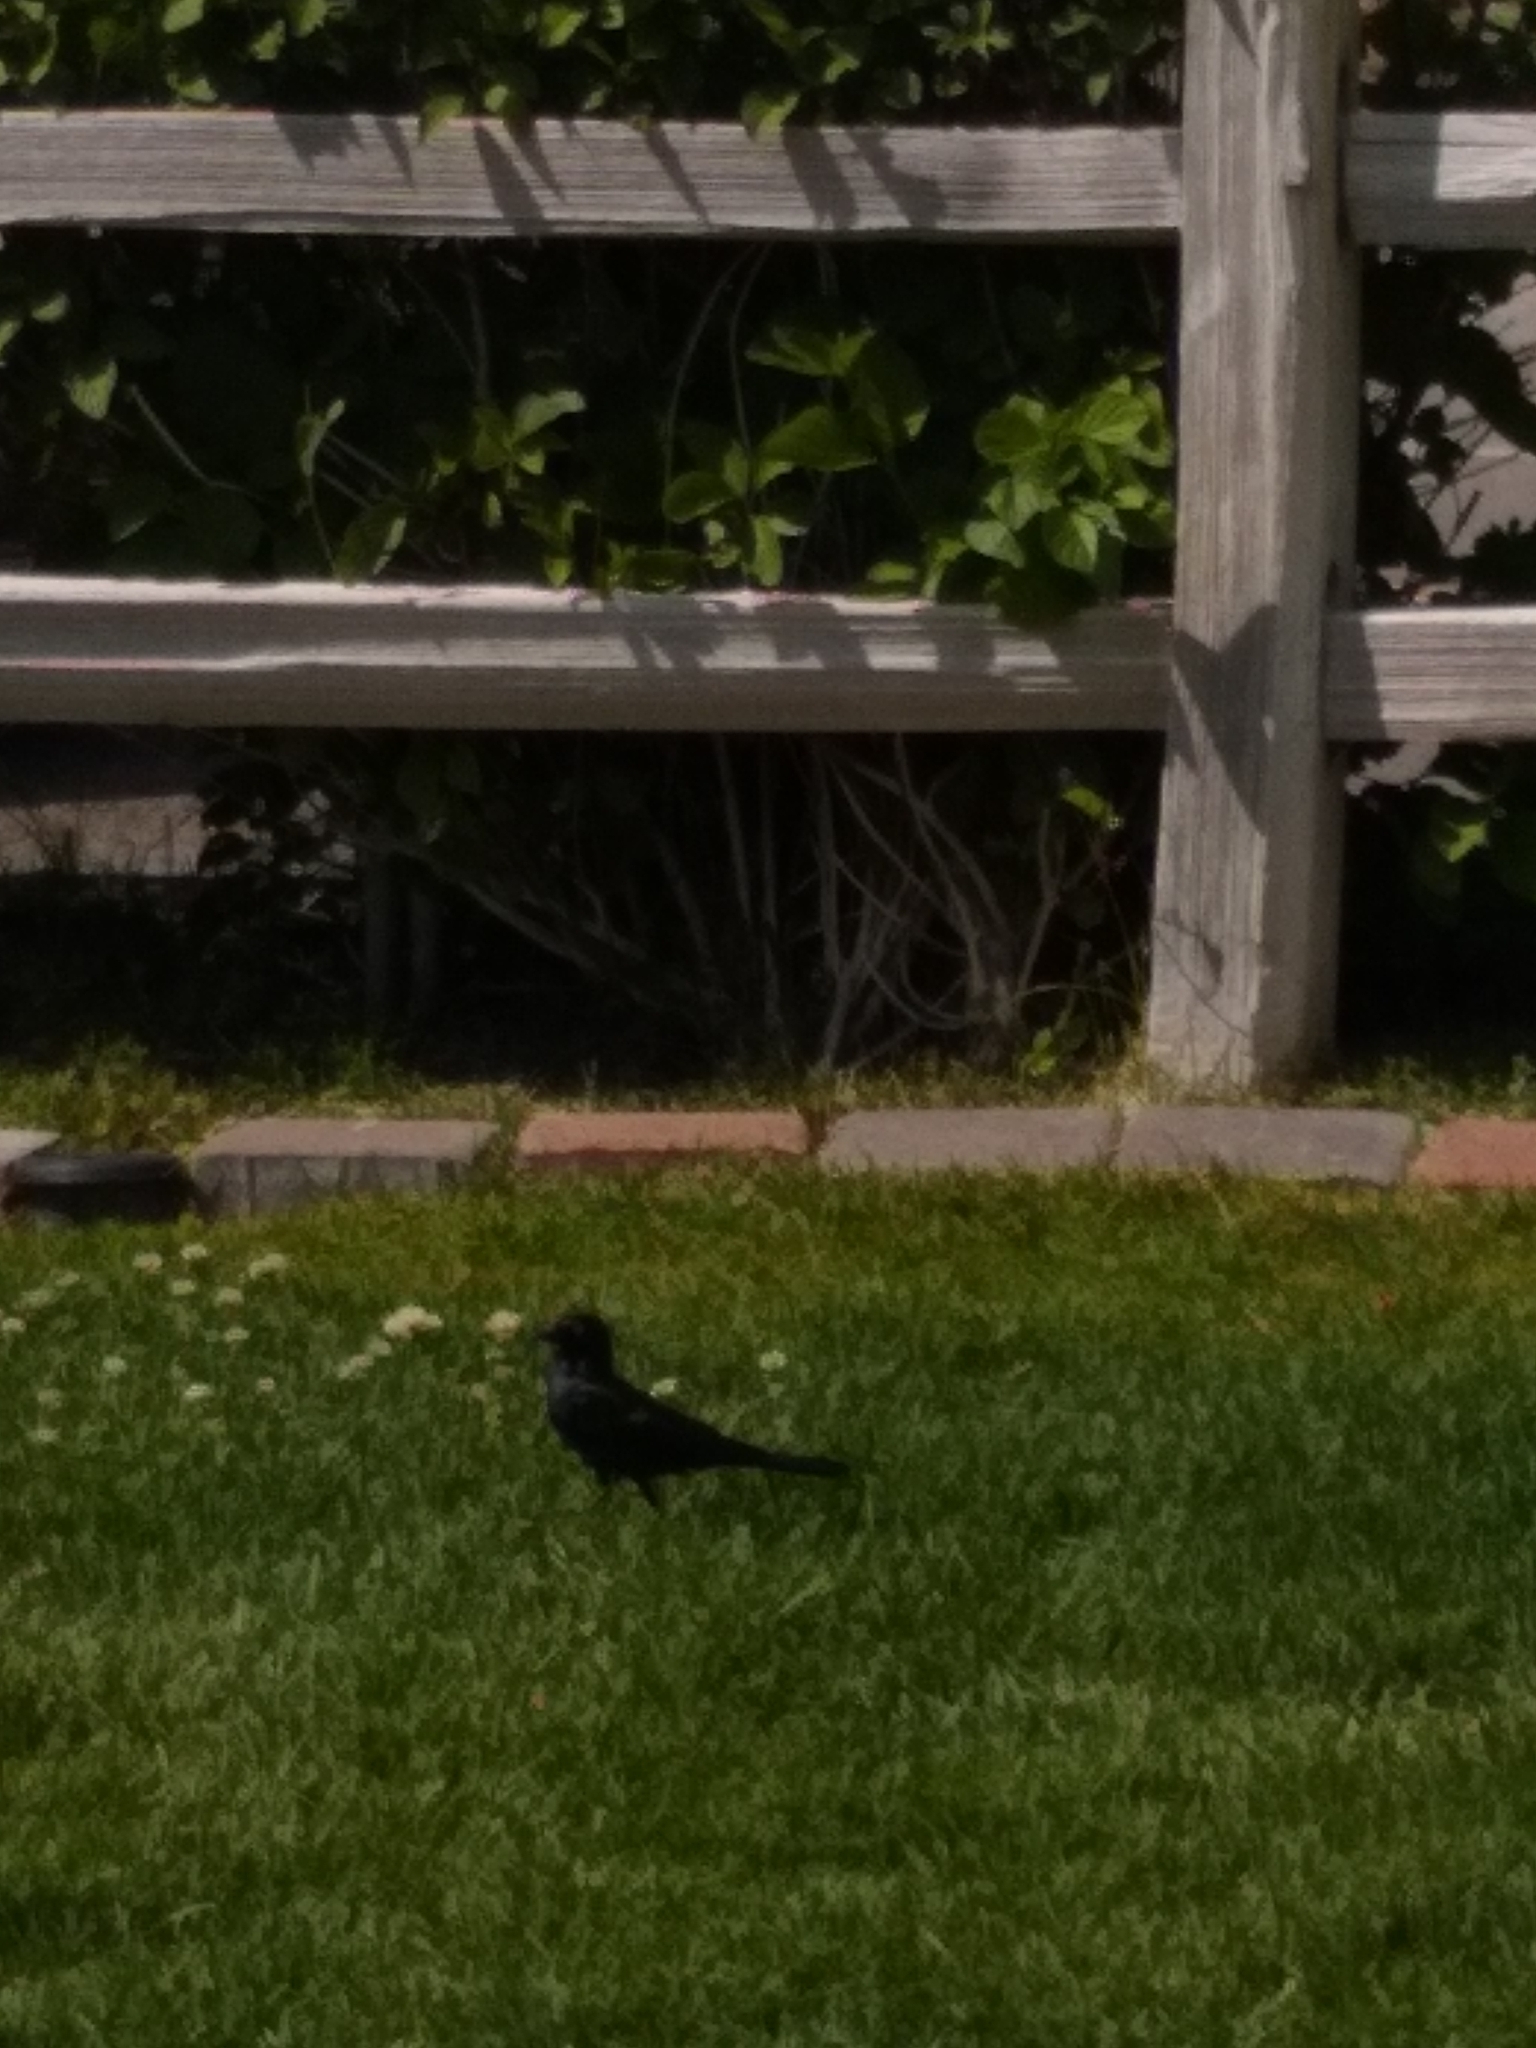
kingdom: Animalia
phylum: Chordata
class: Aves
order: Passeriformes
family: Icteridae
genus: Euphagus
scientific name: Euphagus cyanocephalus
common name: Brewer's blackbird
